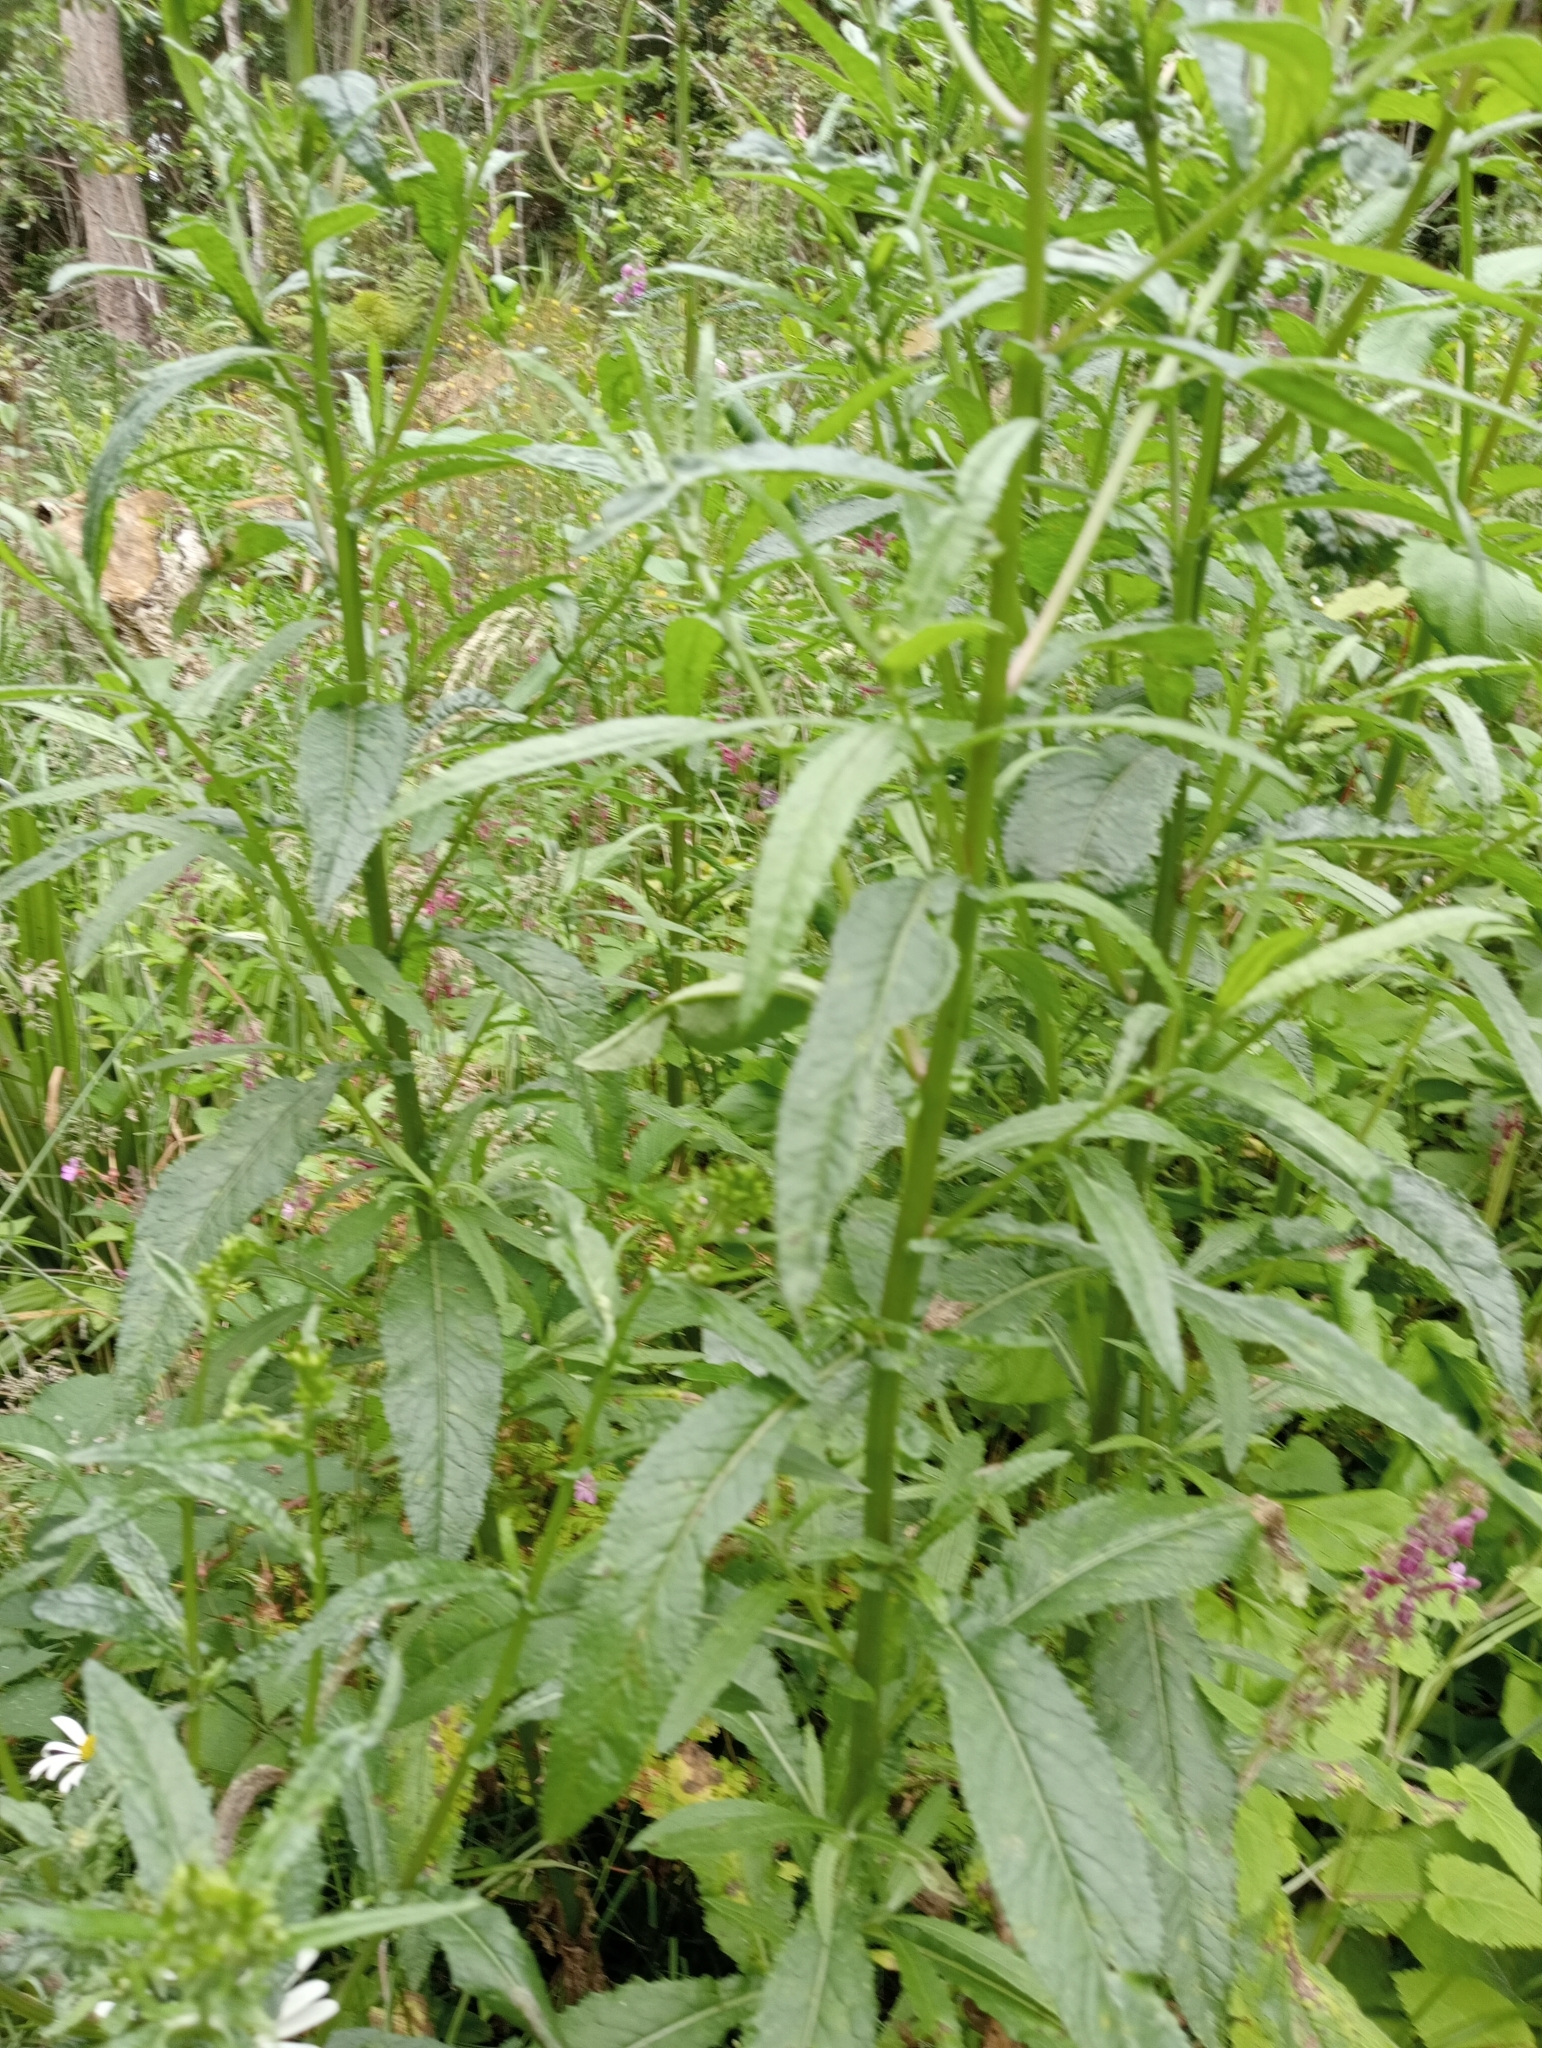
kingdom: Plantae
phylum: Tracheophyta
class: Magnoliopsida
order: Asterales
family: Asteraceae
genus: Senecio
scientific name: Senecio minimus
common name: Toothed fireweed
